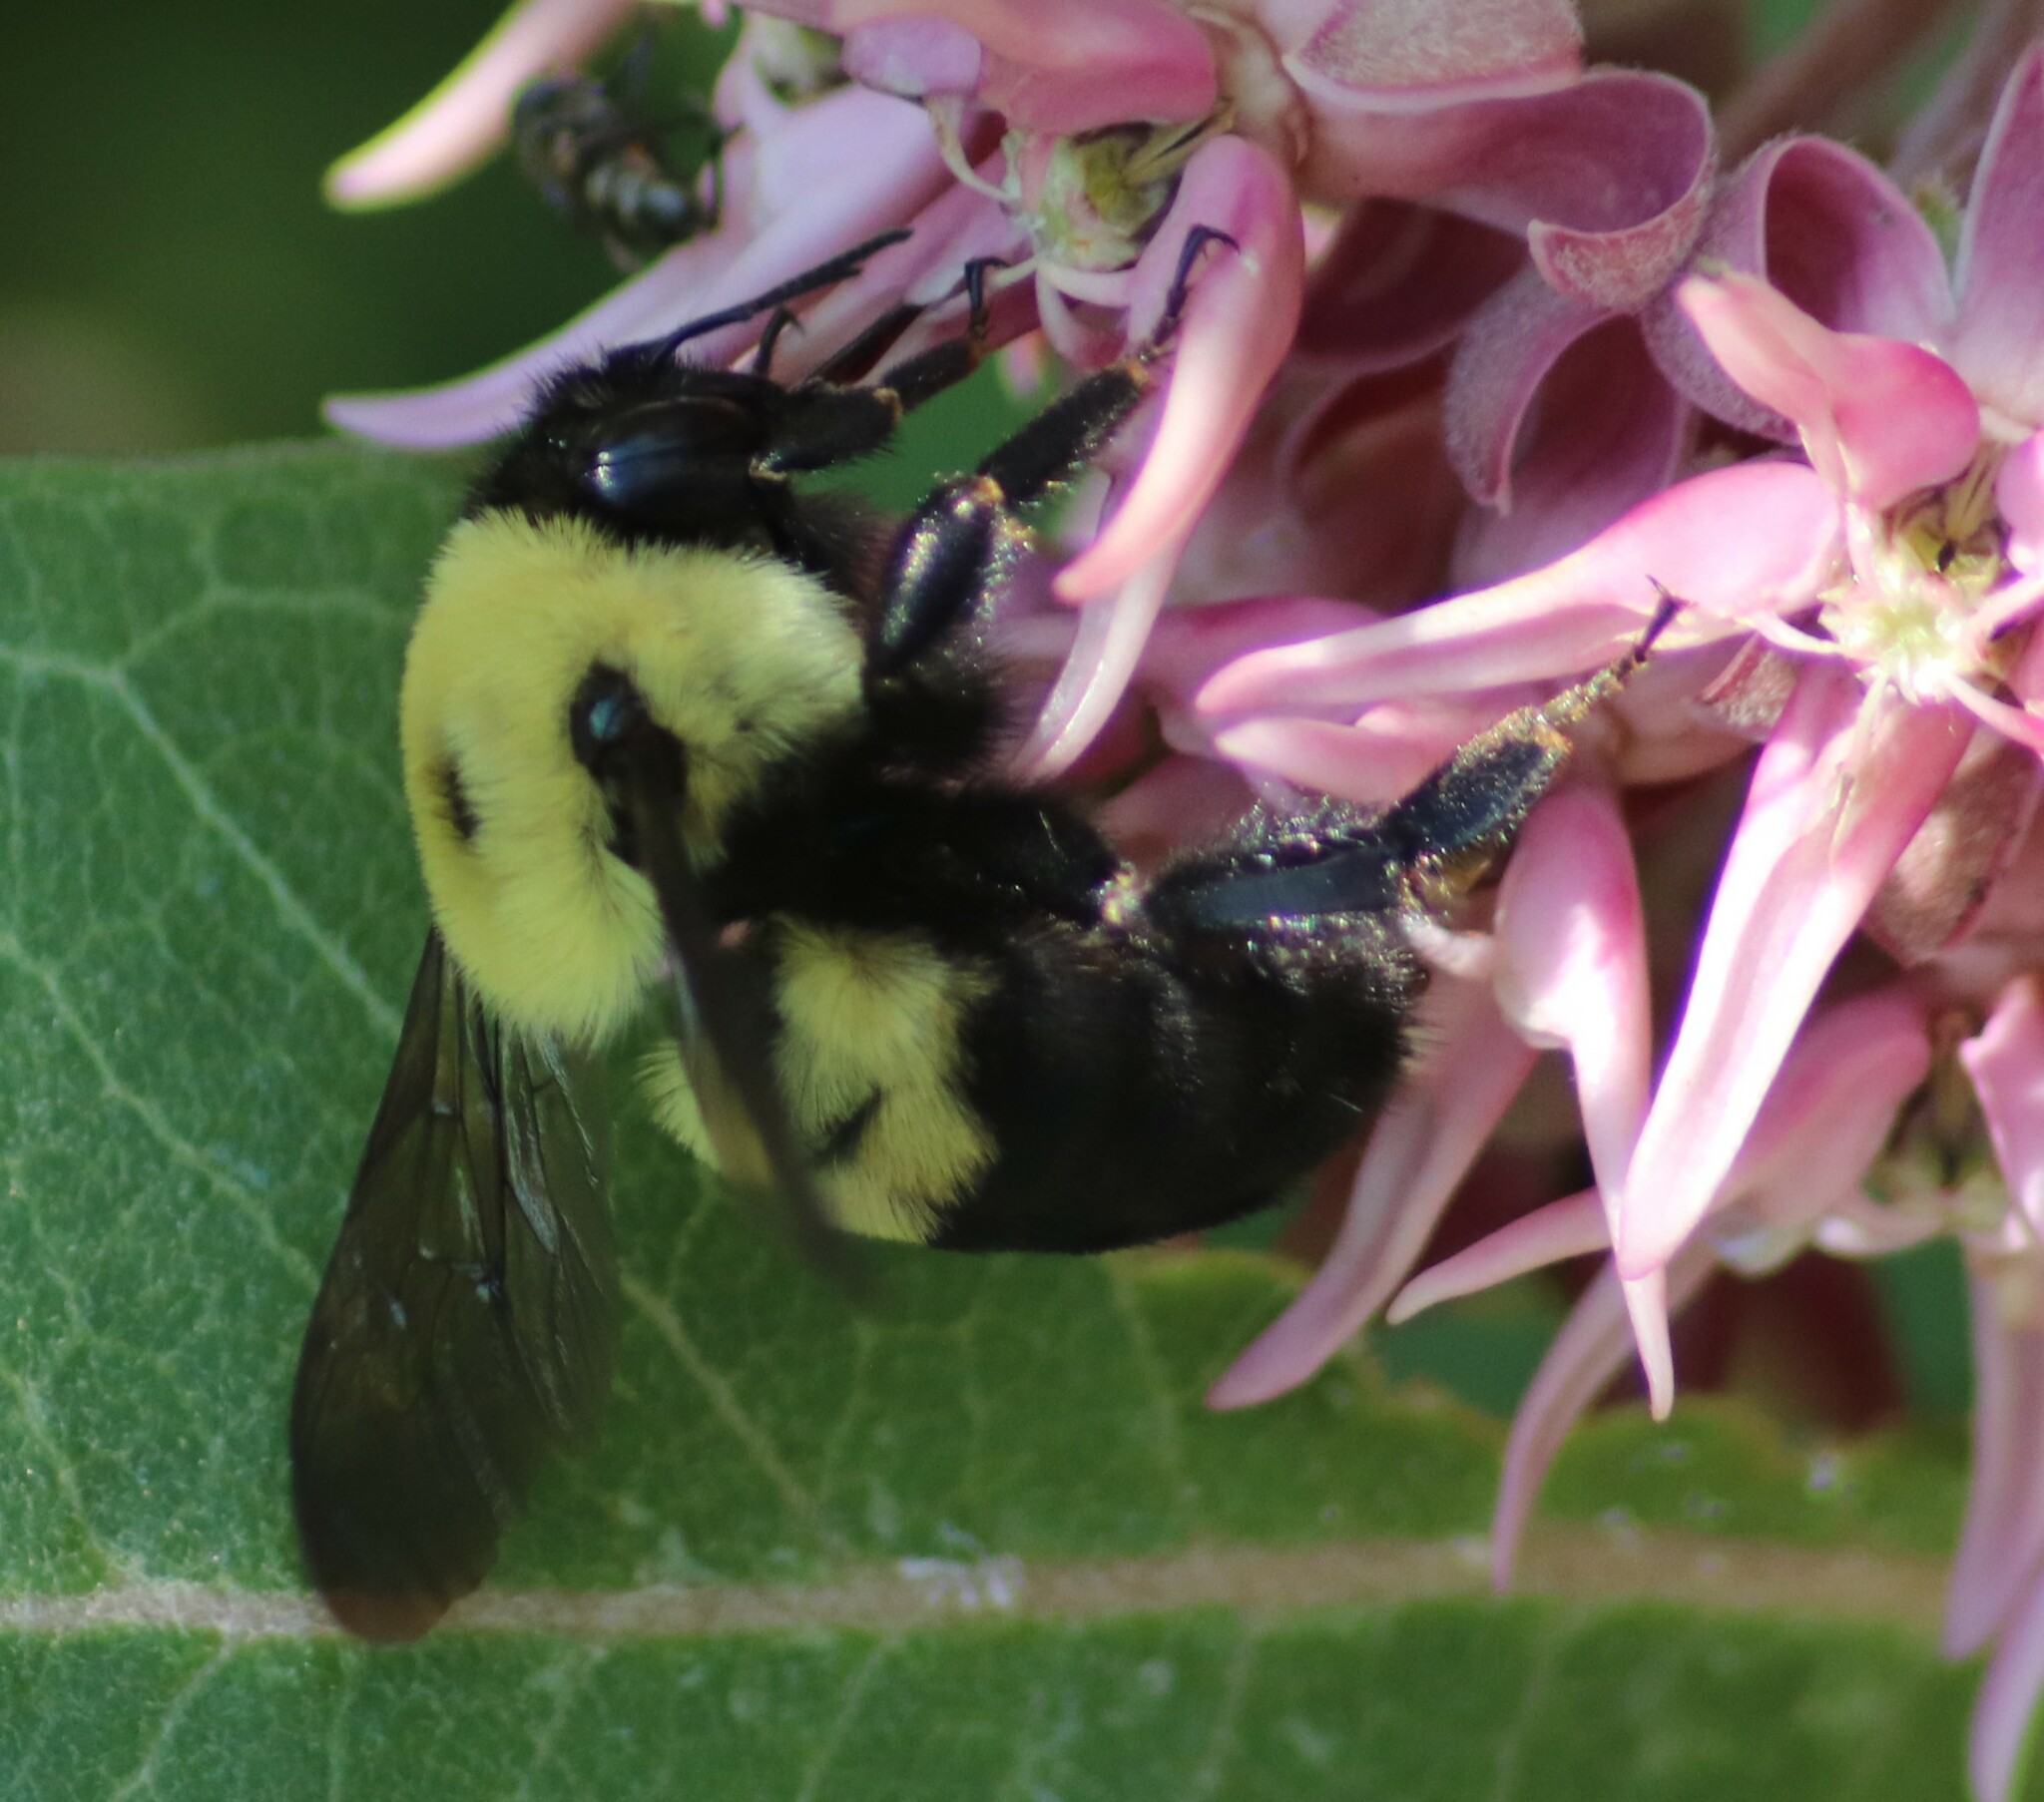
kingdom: Animalia
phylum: Arthropoda
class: Insecta
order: Hymenoptera
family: Apidae
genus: Bombus
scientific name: Bombus griseocollis
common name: Brown-belted bumble bee
